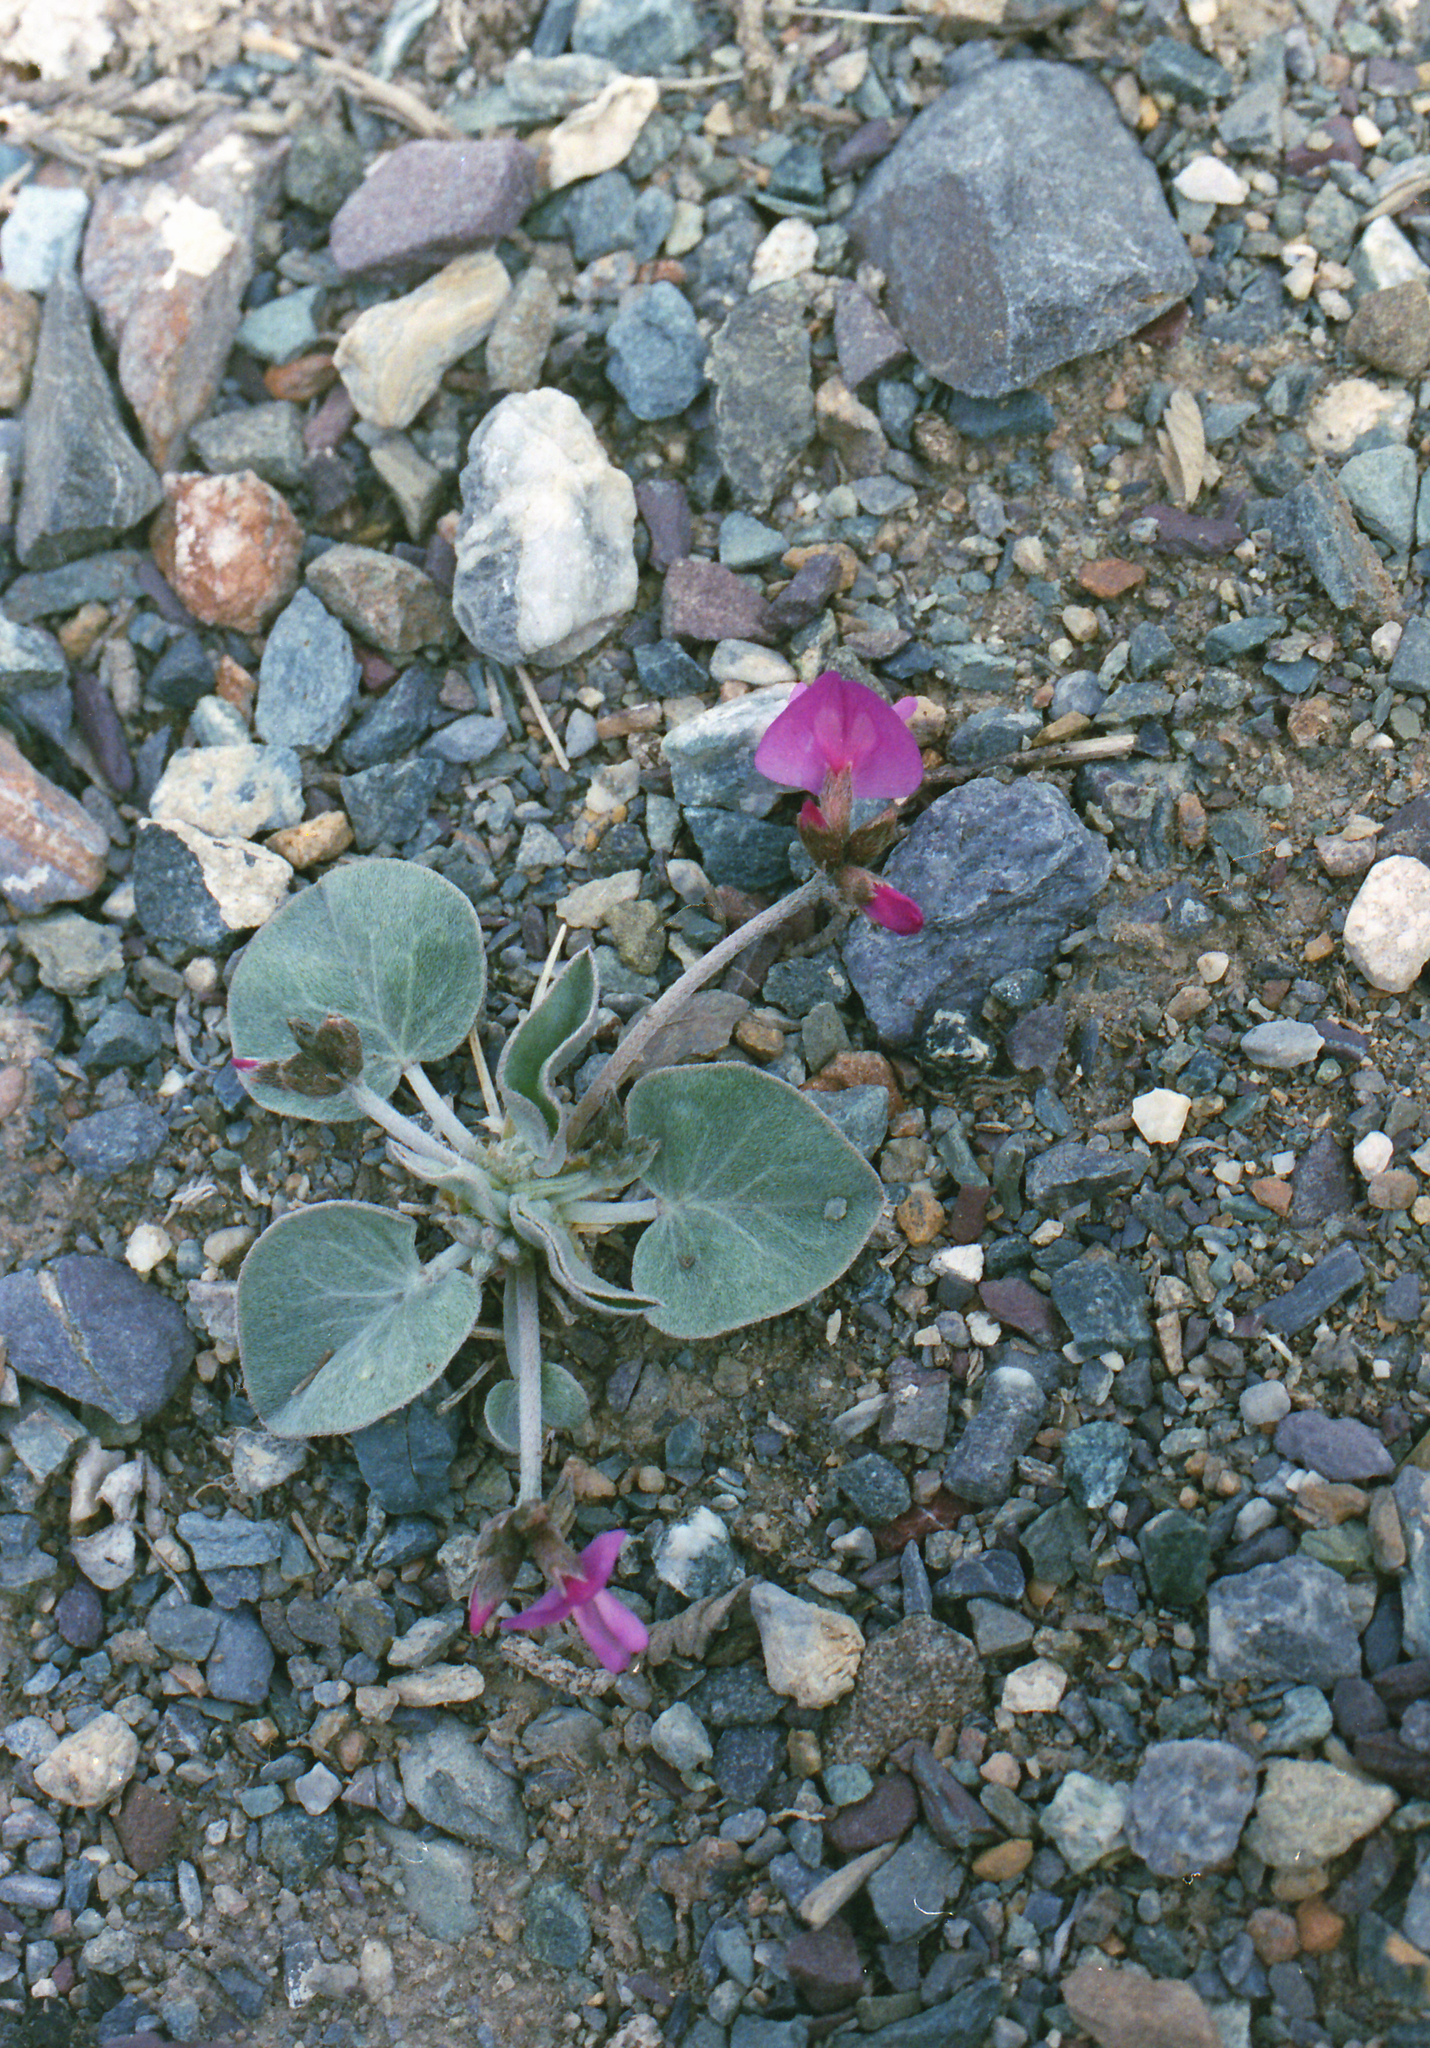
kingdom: Plantae
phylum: Tracheophyta
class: Magnoliopsida
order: Fabales
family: Fabaceae
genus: Gueldenstaedtia
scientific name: Gueldenstaedtia monophylla
